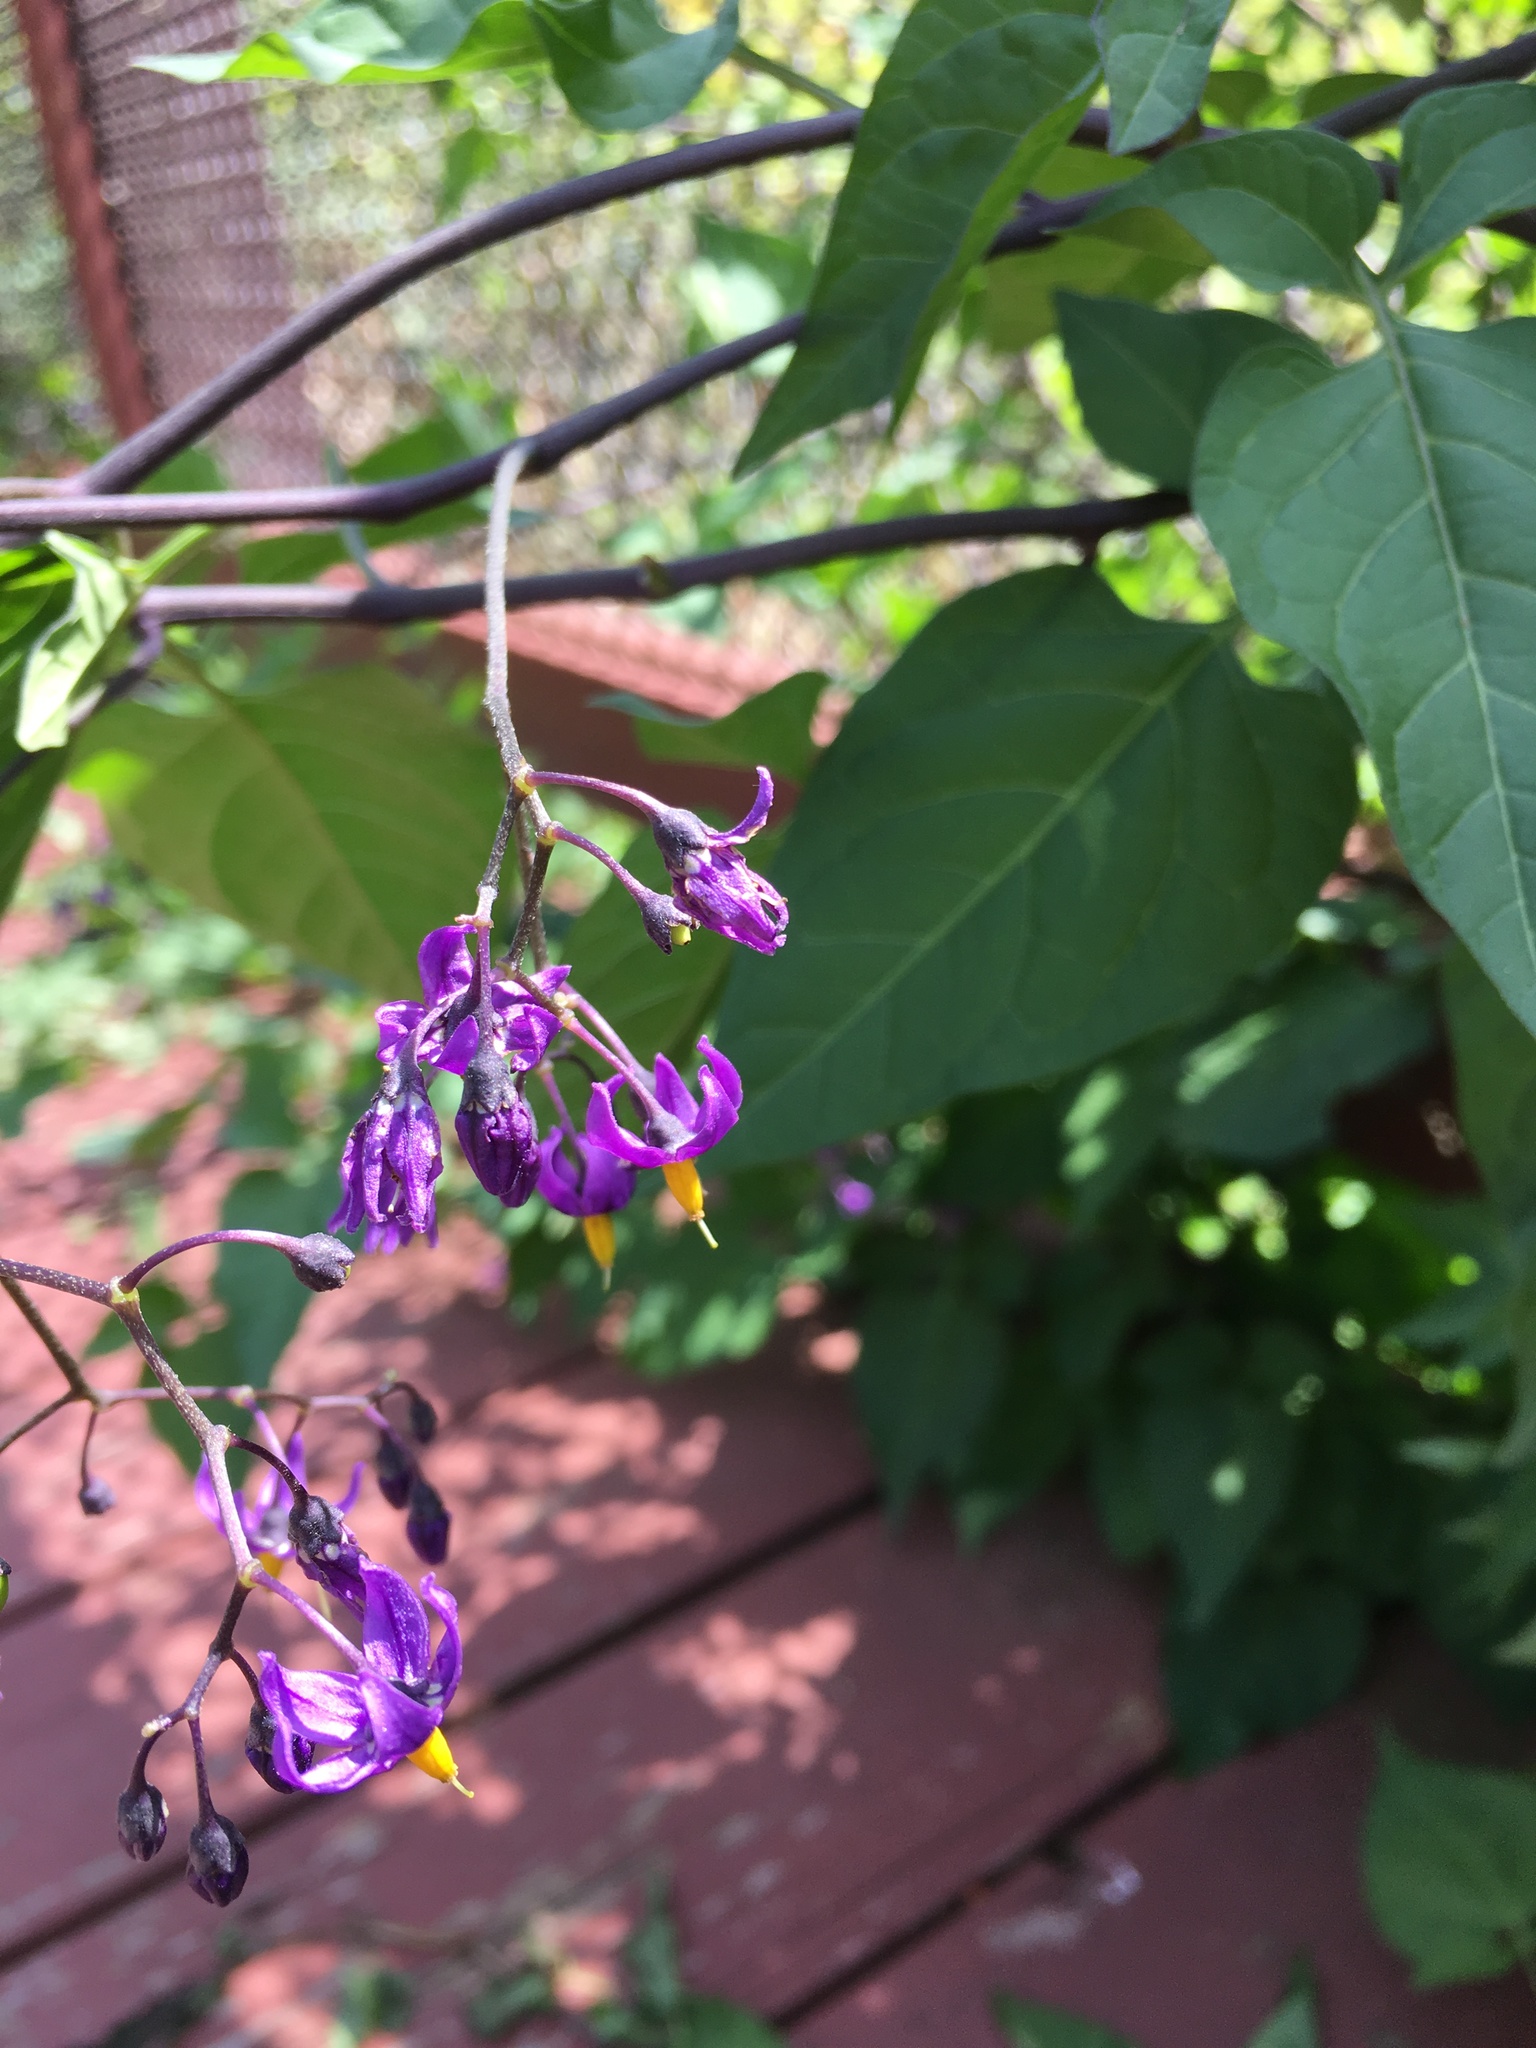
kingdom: Plantae
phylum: Tracheophyta
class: Magnoliopsida
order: Solanales
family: Solanaceae
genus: Solanum
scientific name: Solanum dulcamara
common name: Climbing nightshade
